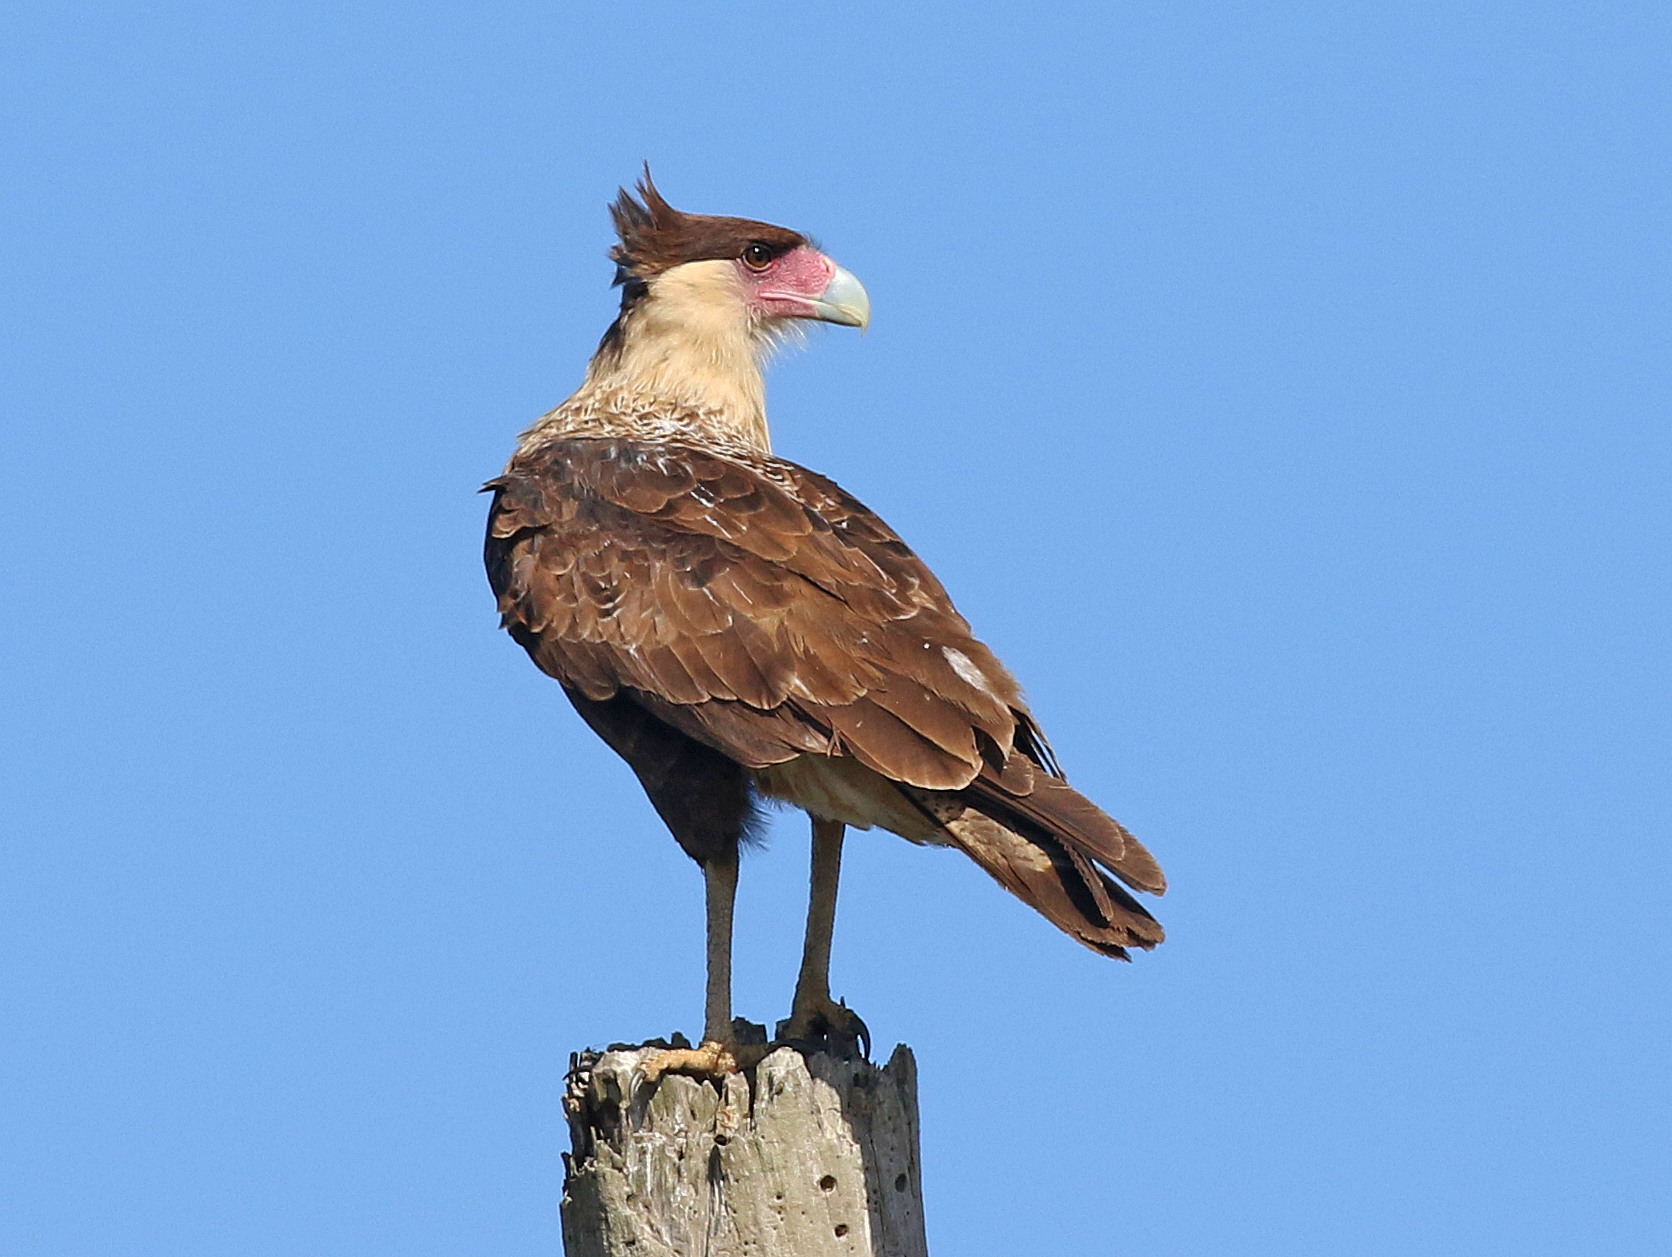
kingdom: Animalia
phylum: Chordata
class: Aves
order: Falconiformes
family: Falconidae
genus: Caracara
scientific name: Caracara plancus
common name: Southern caracara
